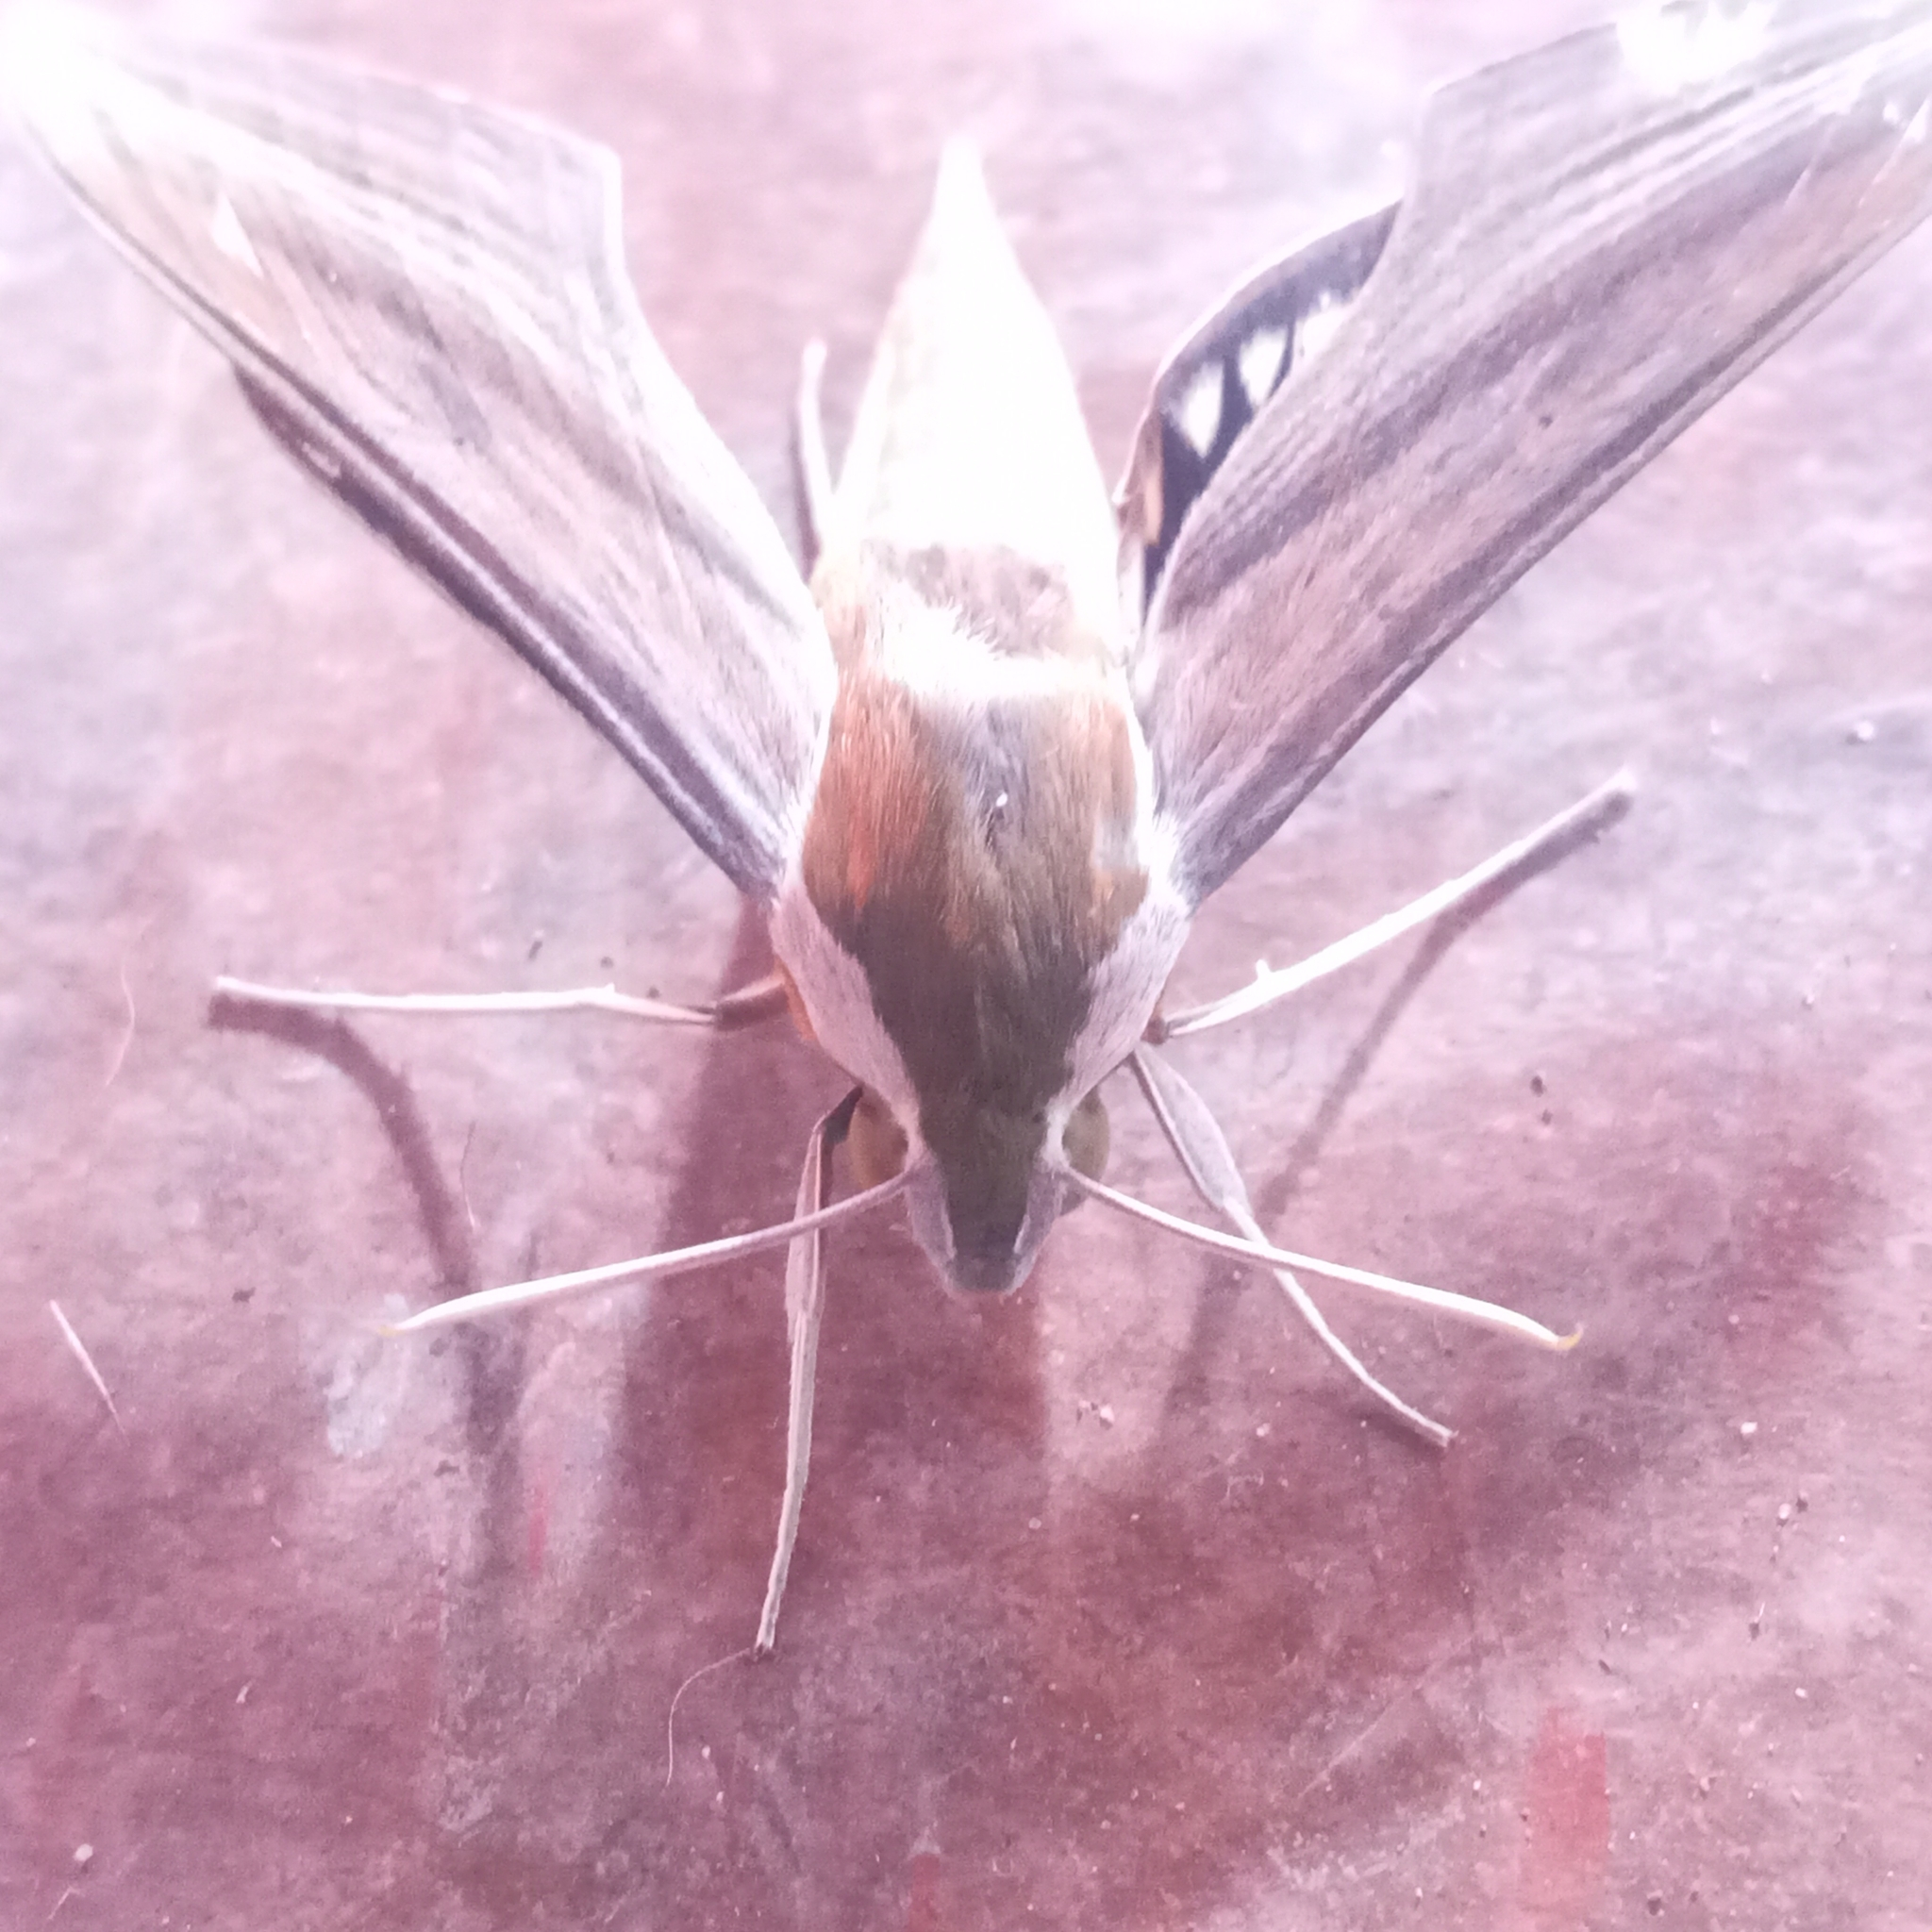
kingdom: Animalia
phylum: Arthropoda
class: Insecta
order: Lepidoptera
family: Sphingidae
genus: Xylophanes
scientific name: Xylophanes tersa
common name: Tersa sphinx
